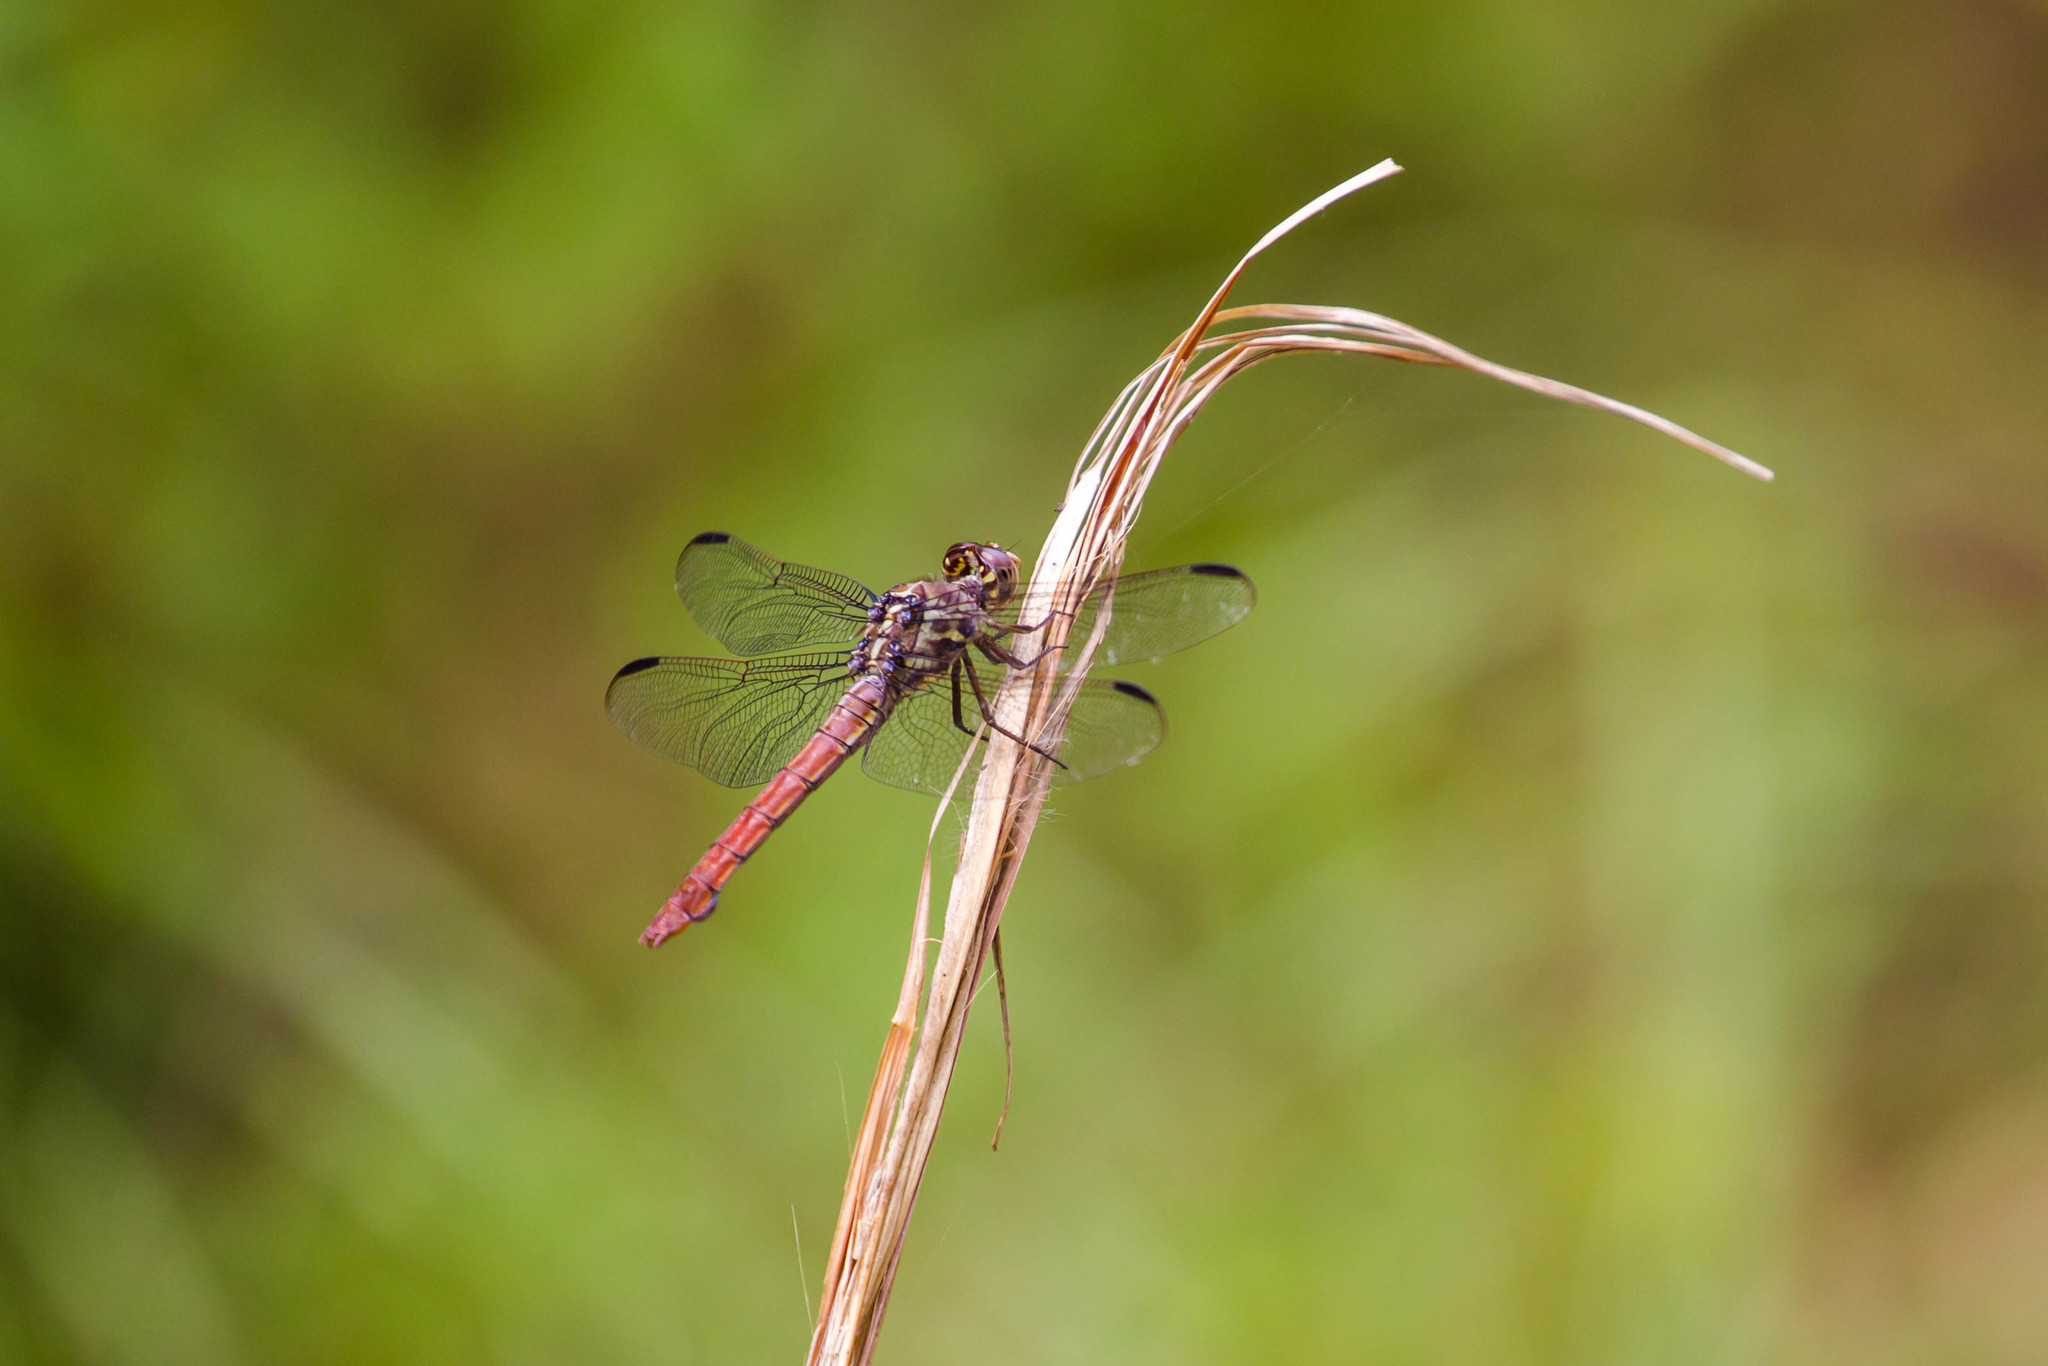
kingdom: Animalia
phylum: Arthropoda
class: Insecta
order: Odonata
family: Libellulidae
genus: Orthemis
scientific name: Orthemis ferruginea
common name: Roseate skimmer
